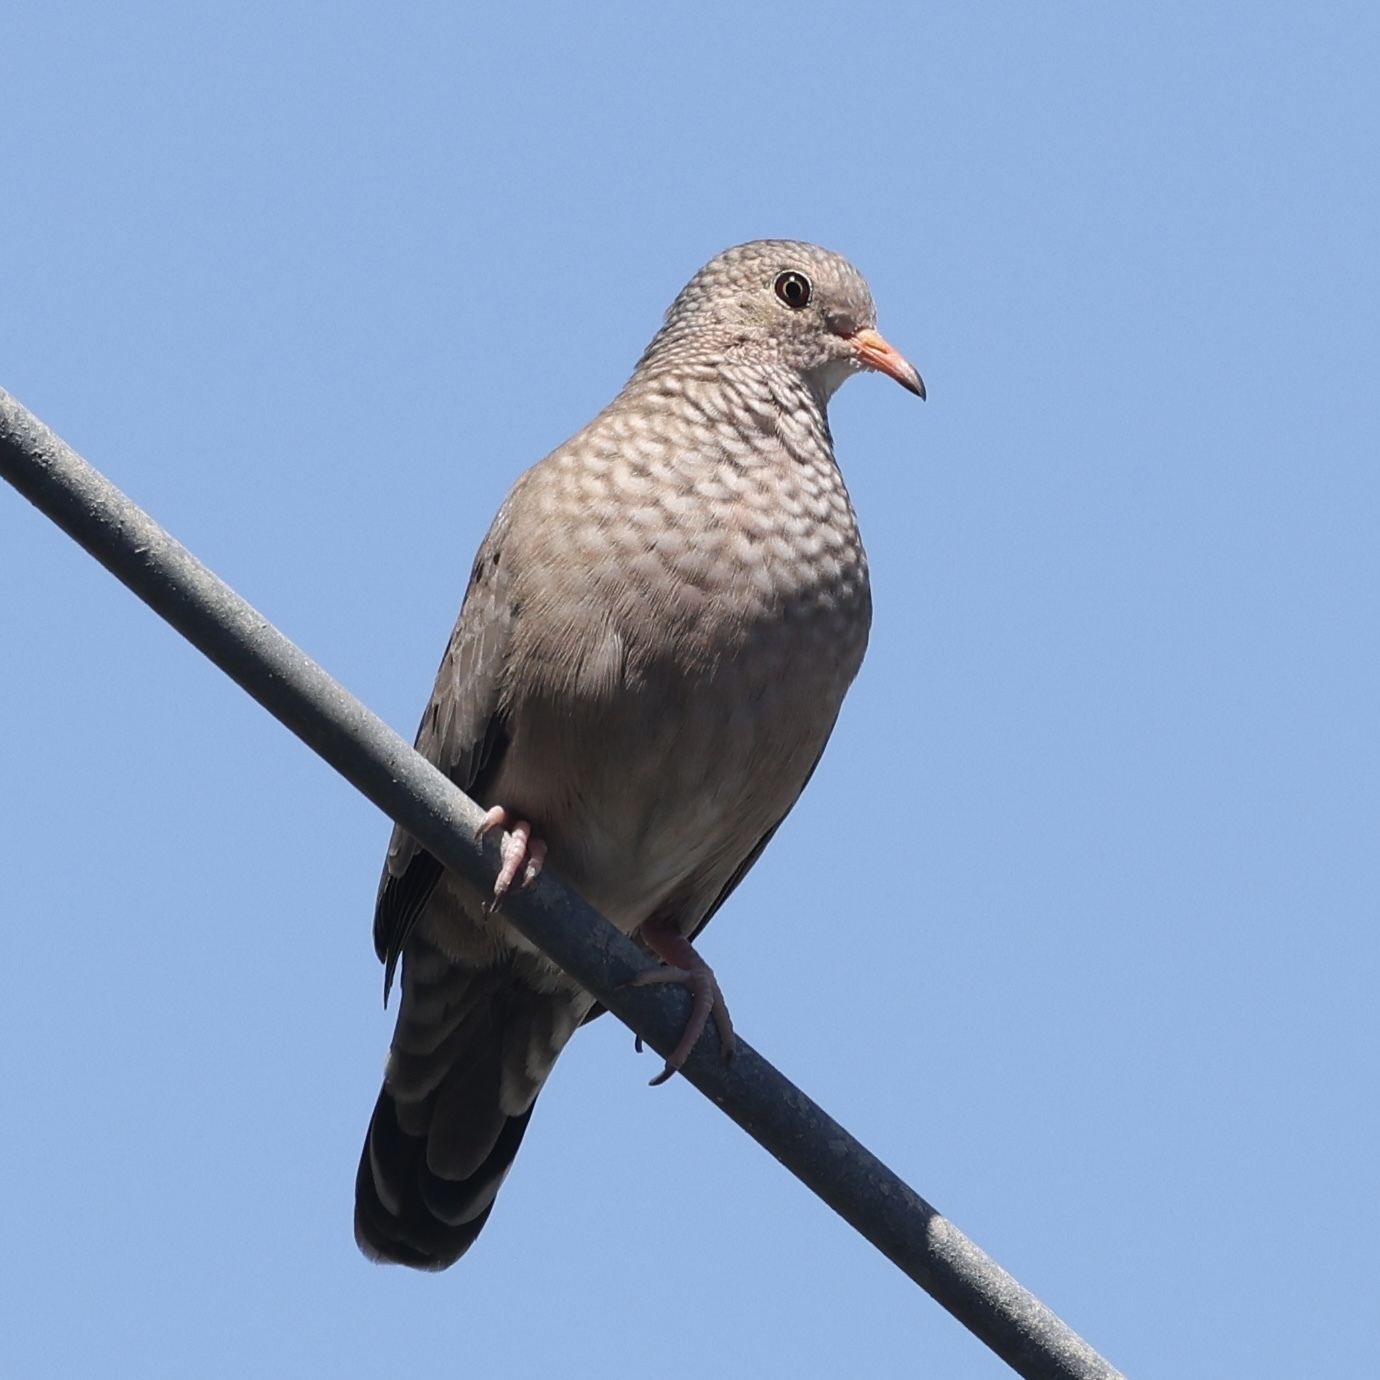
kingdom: Animalia
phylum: Chordata
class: Aves
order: Columbiformes
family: Columbidae
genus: Columbina
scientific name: Columbina passerina
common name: Common ground-dove
